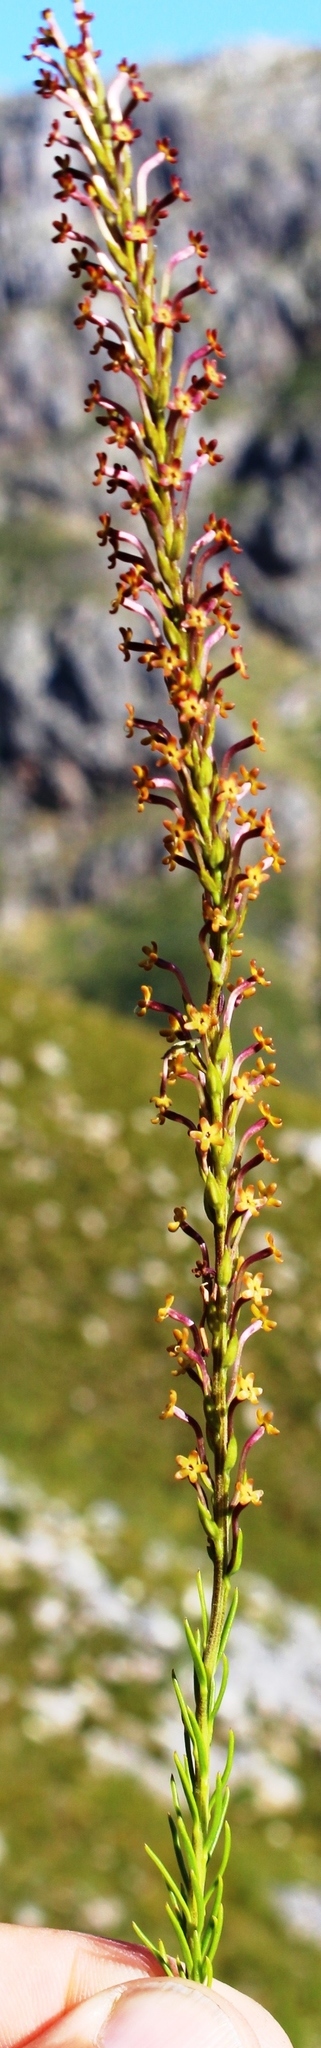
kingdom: Plantae
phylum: Tracheophyta
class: Magnoliopsida
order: Lamiales
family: Scrophulariaceae
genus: Microdon
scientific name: Microdon dubius
